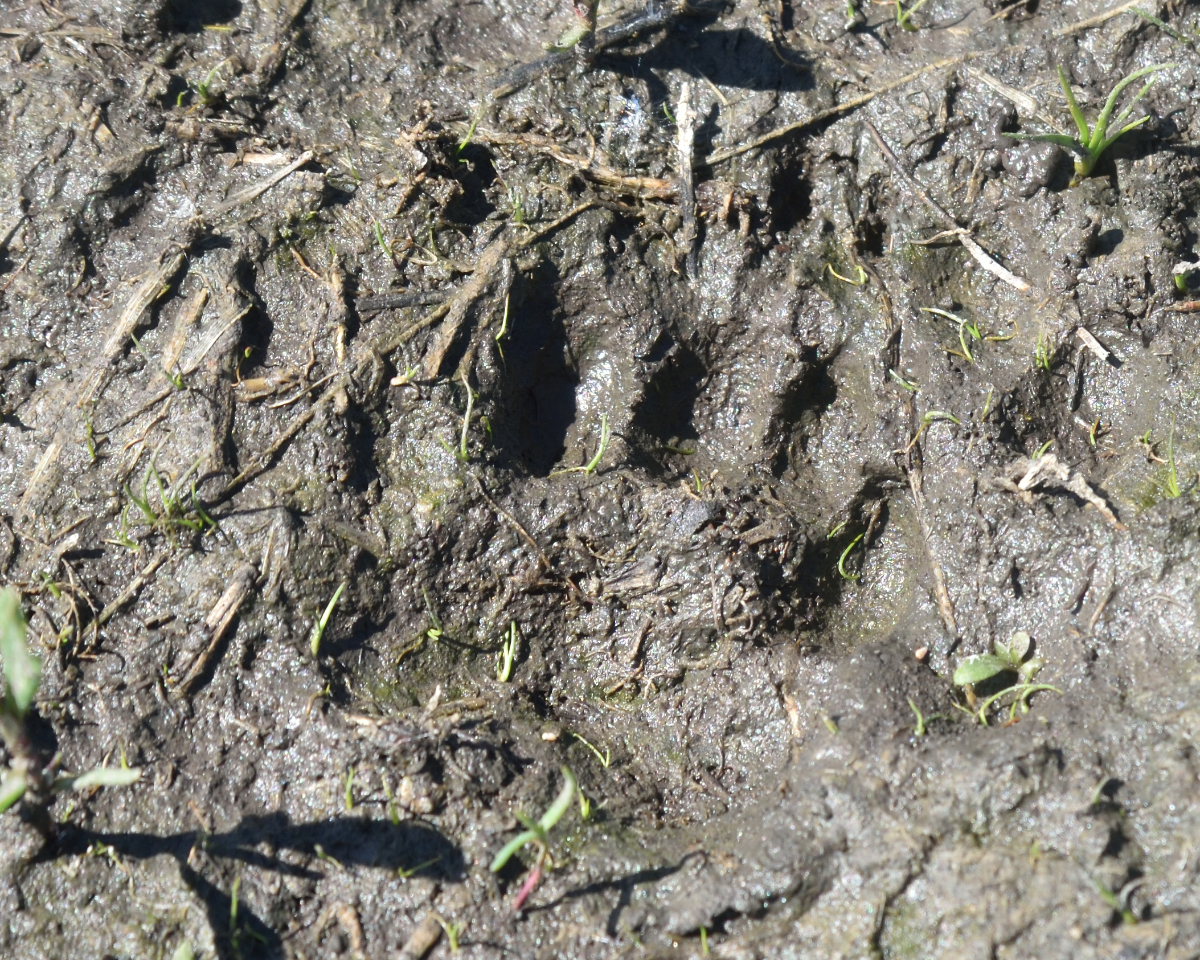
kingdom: Animalia
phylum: Chordata
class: Mammalia
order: Carnivora
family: Mustelidae
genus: Meles
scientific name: Meles meles
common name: Eurasian badger
